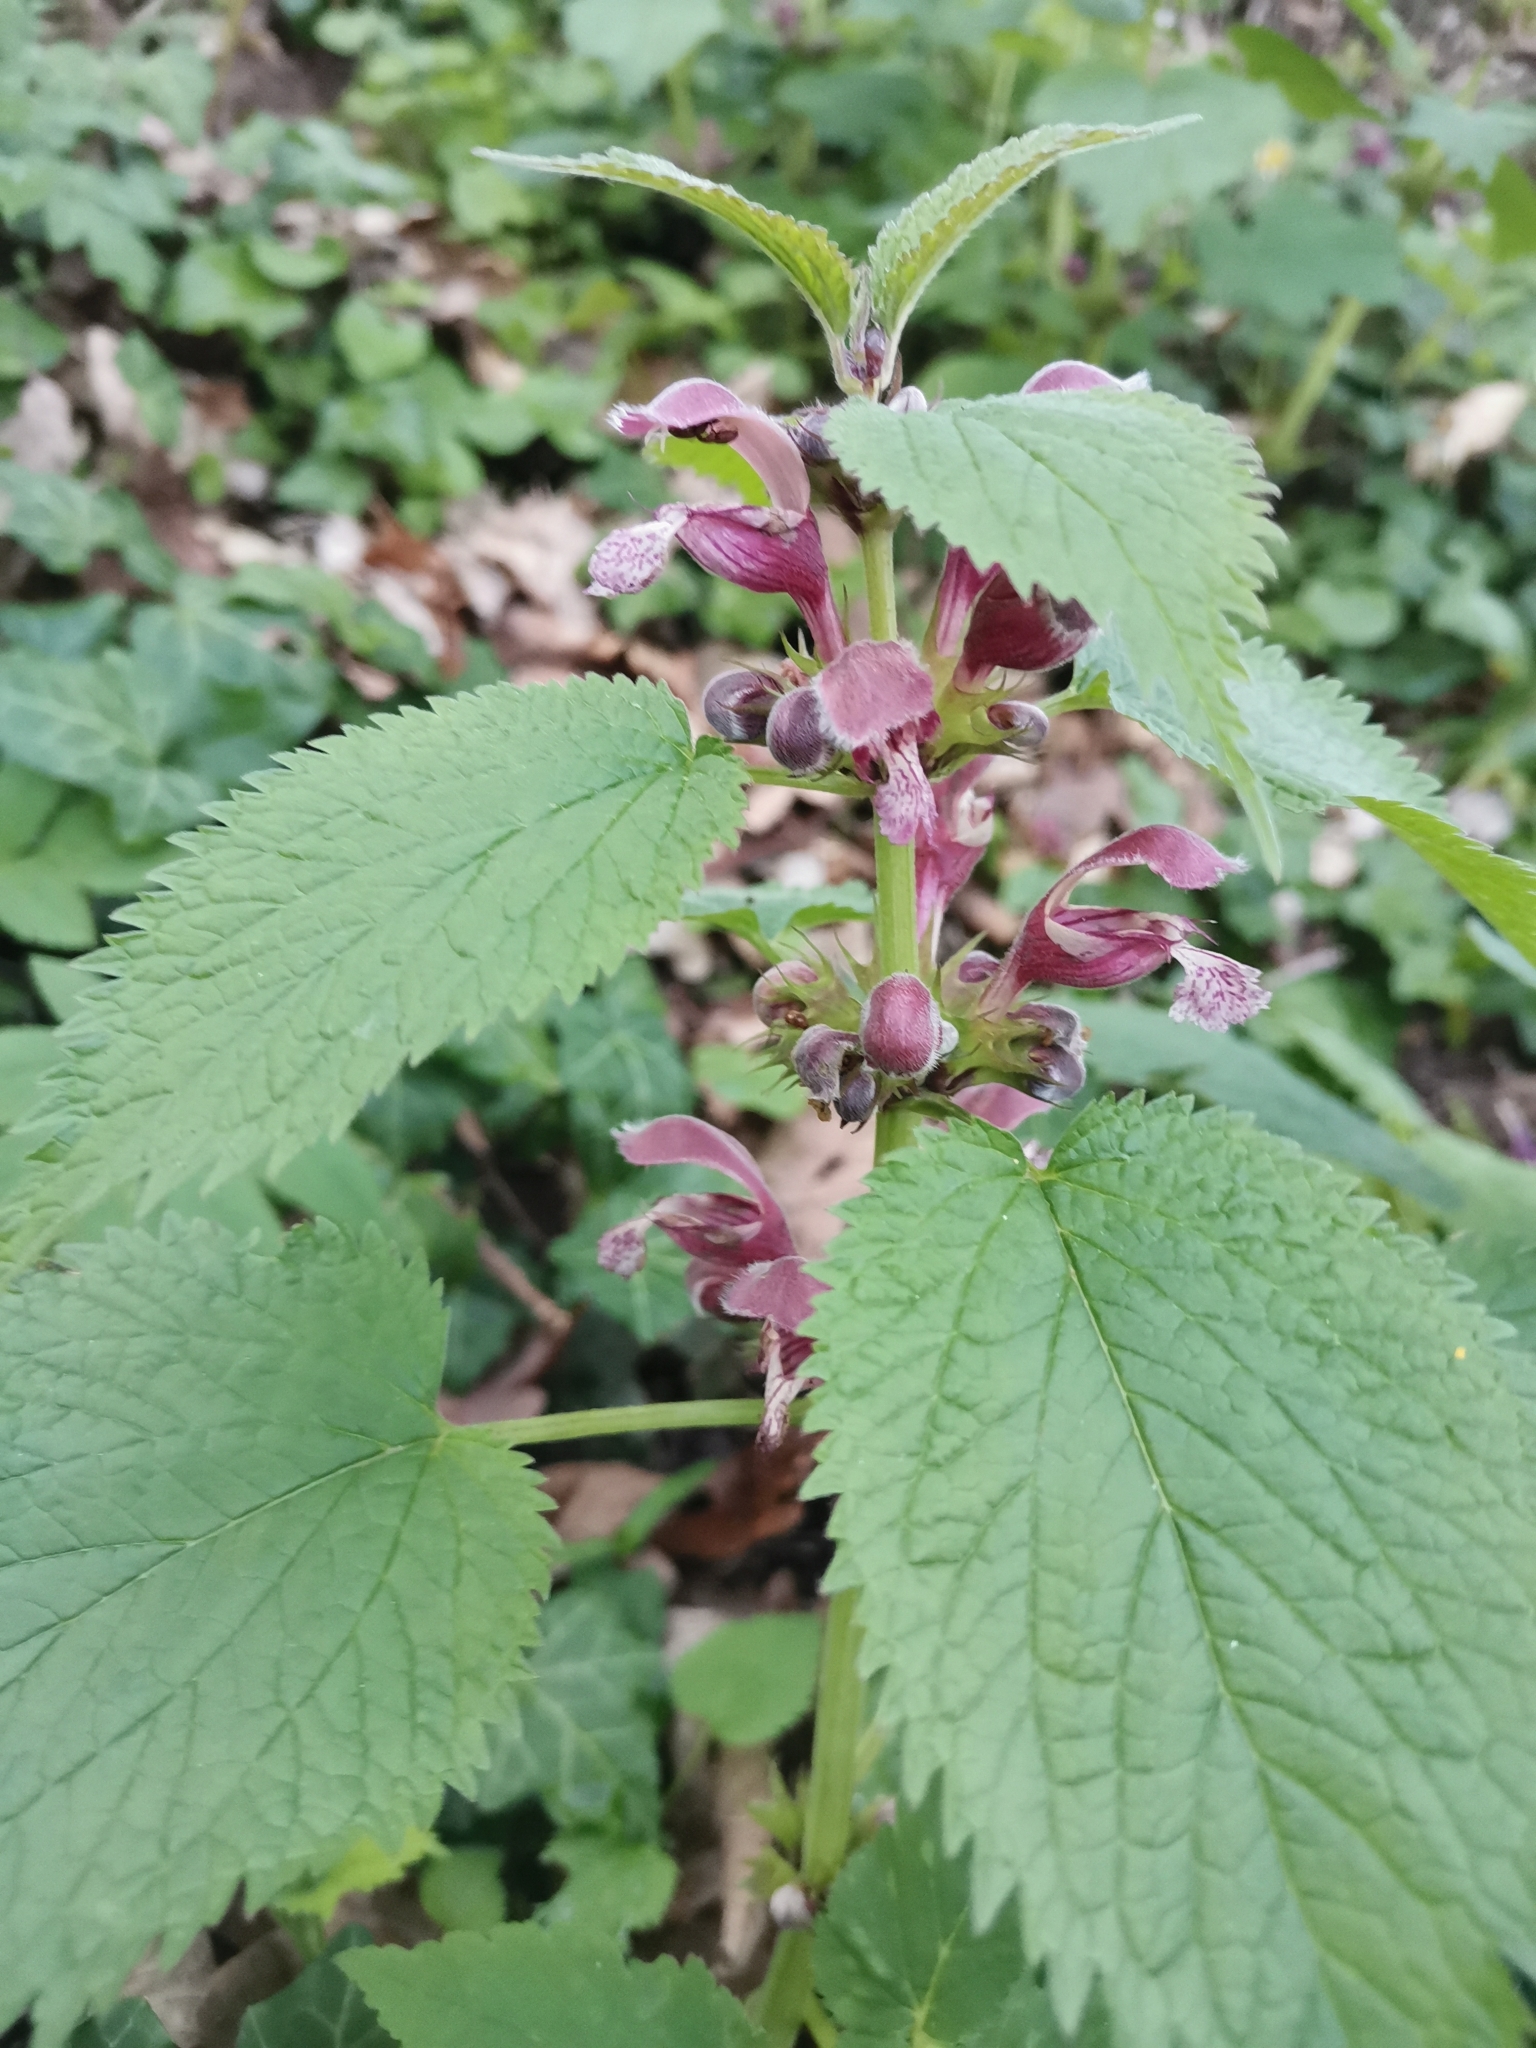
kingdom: Plantae
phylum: Tracheophyta
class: Magnoliopsida
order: Lamiales
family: Lamiaceae
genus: Lamium
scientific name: Lamium orvala
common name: Balm-leaved archangel
